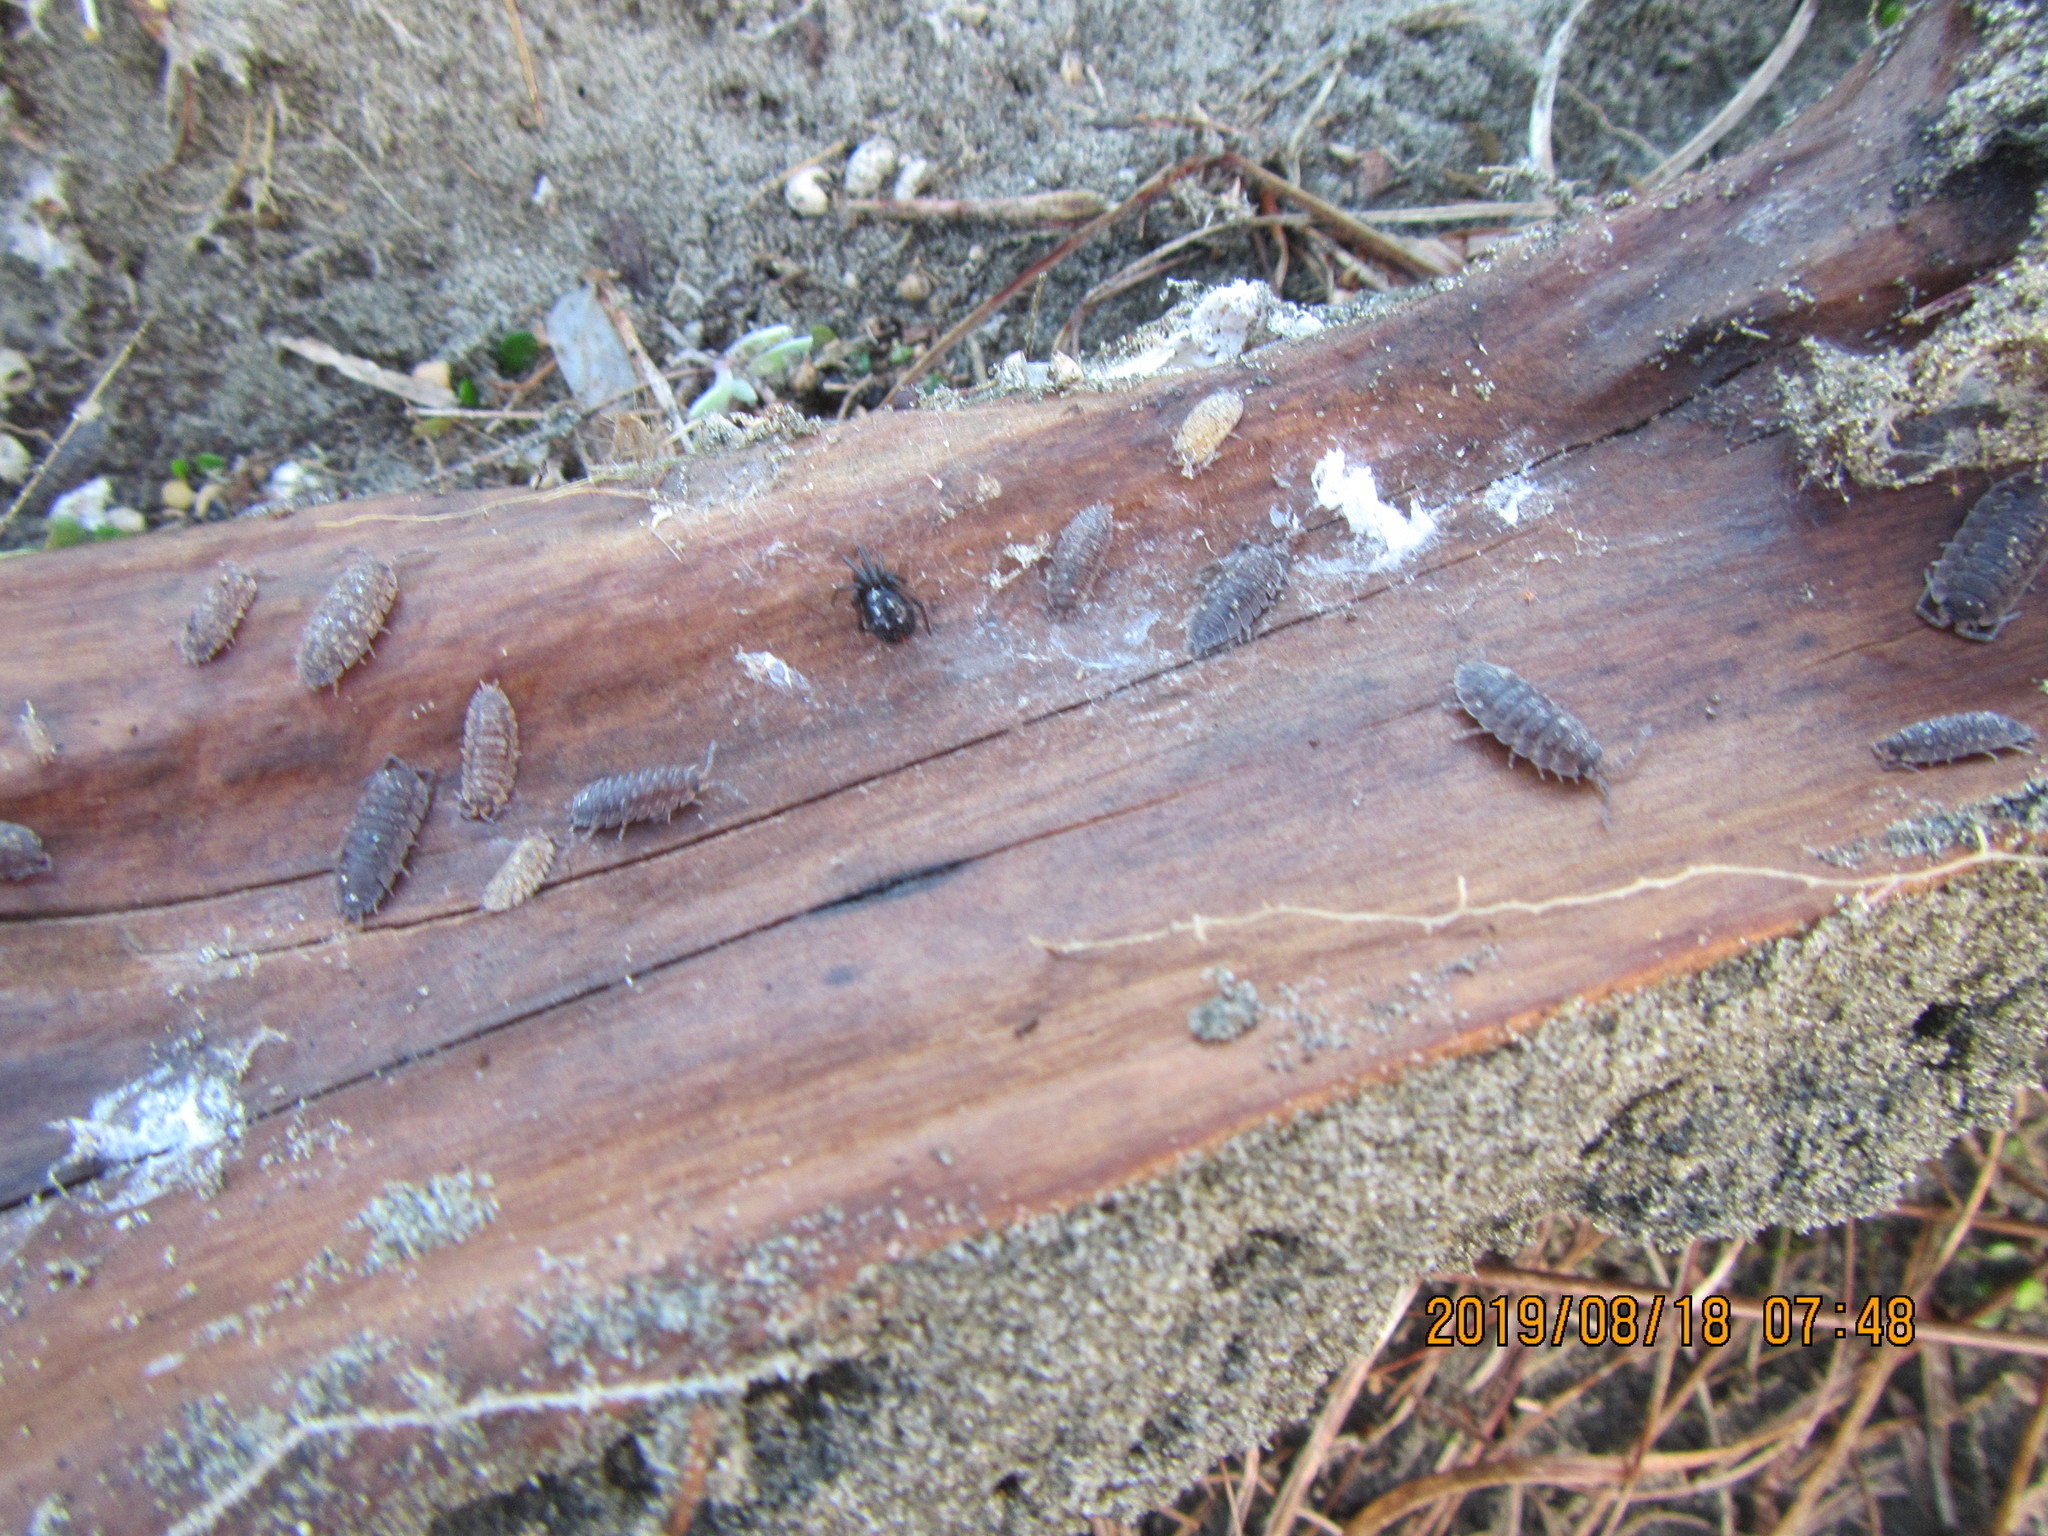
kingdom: Animalia
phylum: Arthropoda
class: Malacostraca
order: Isopoda
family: Porcellionidae
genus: Porcellio
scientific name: Porcellio scaber
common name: Common rough woodlouse
